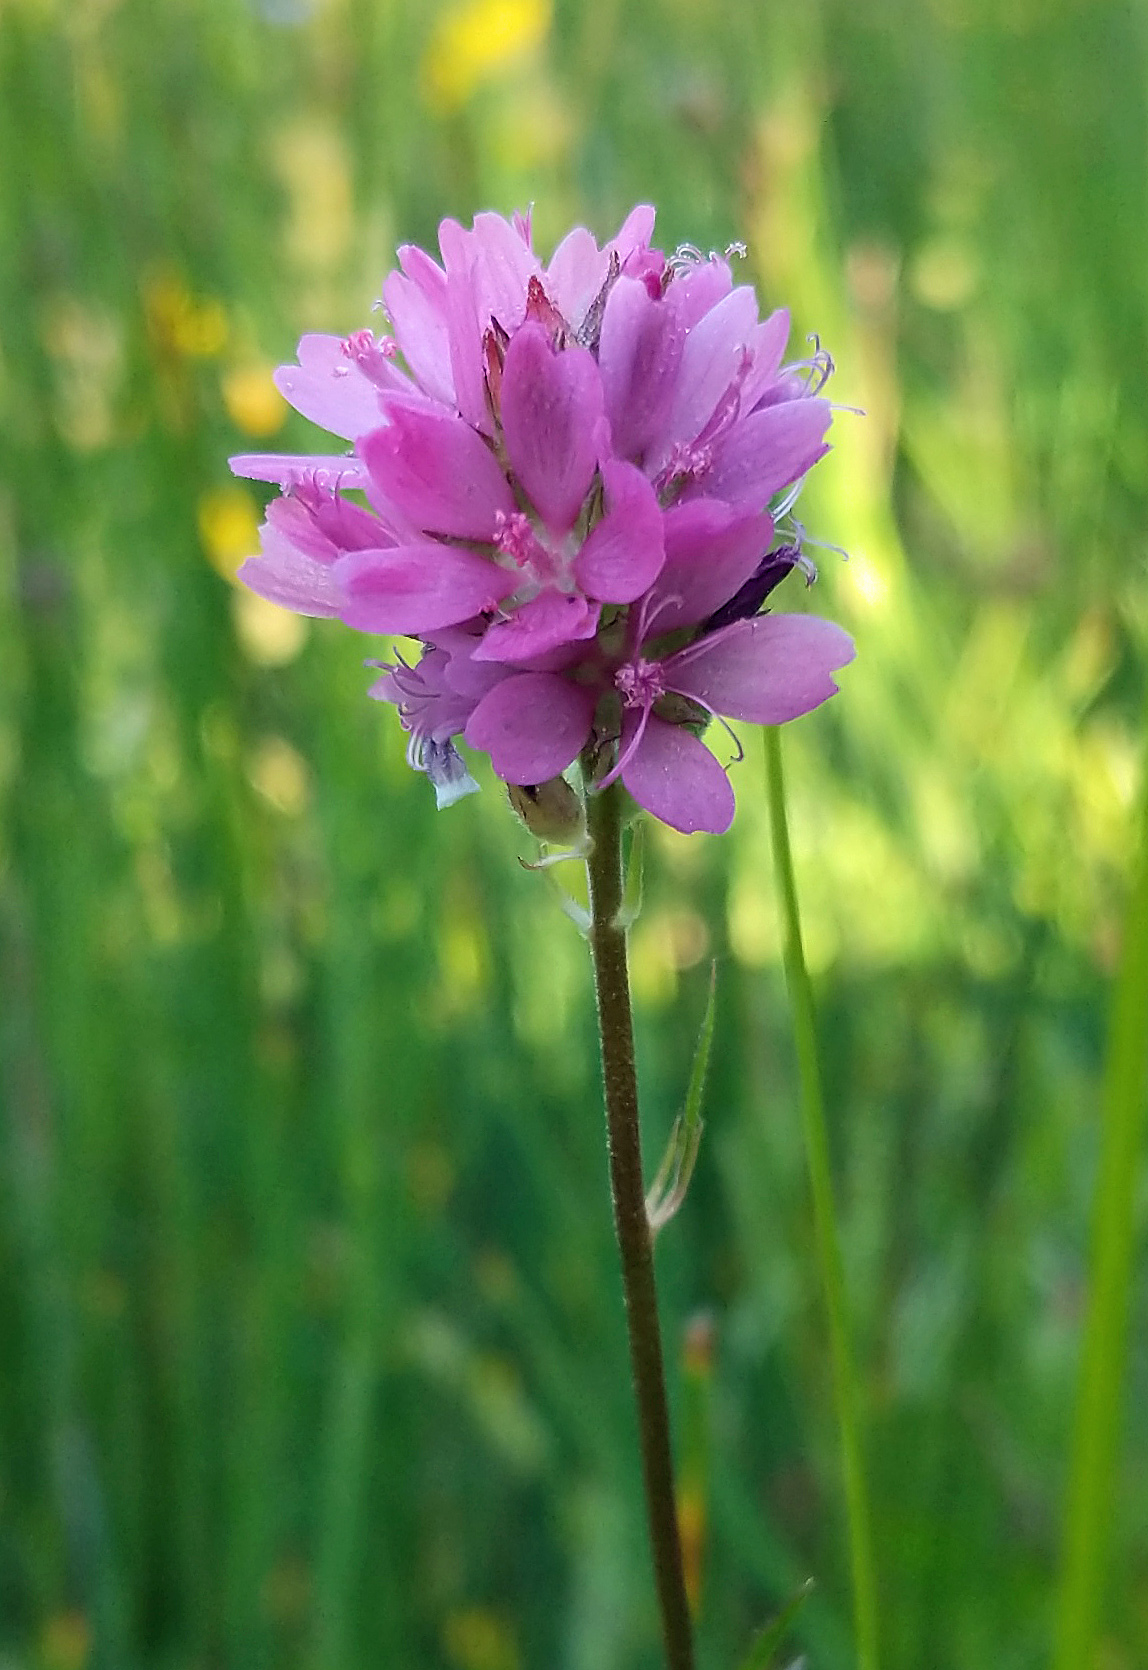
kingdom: Plantae
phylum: Tracheophyta
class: Magnoliopsida
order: Malvales
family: Malvaceae
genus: Sidalcea
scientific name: Sidalcea oregana
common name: Oregon checker-mallow
